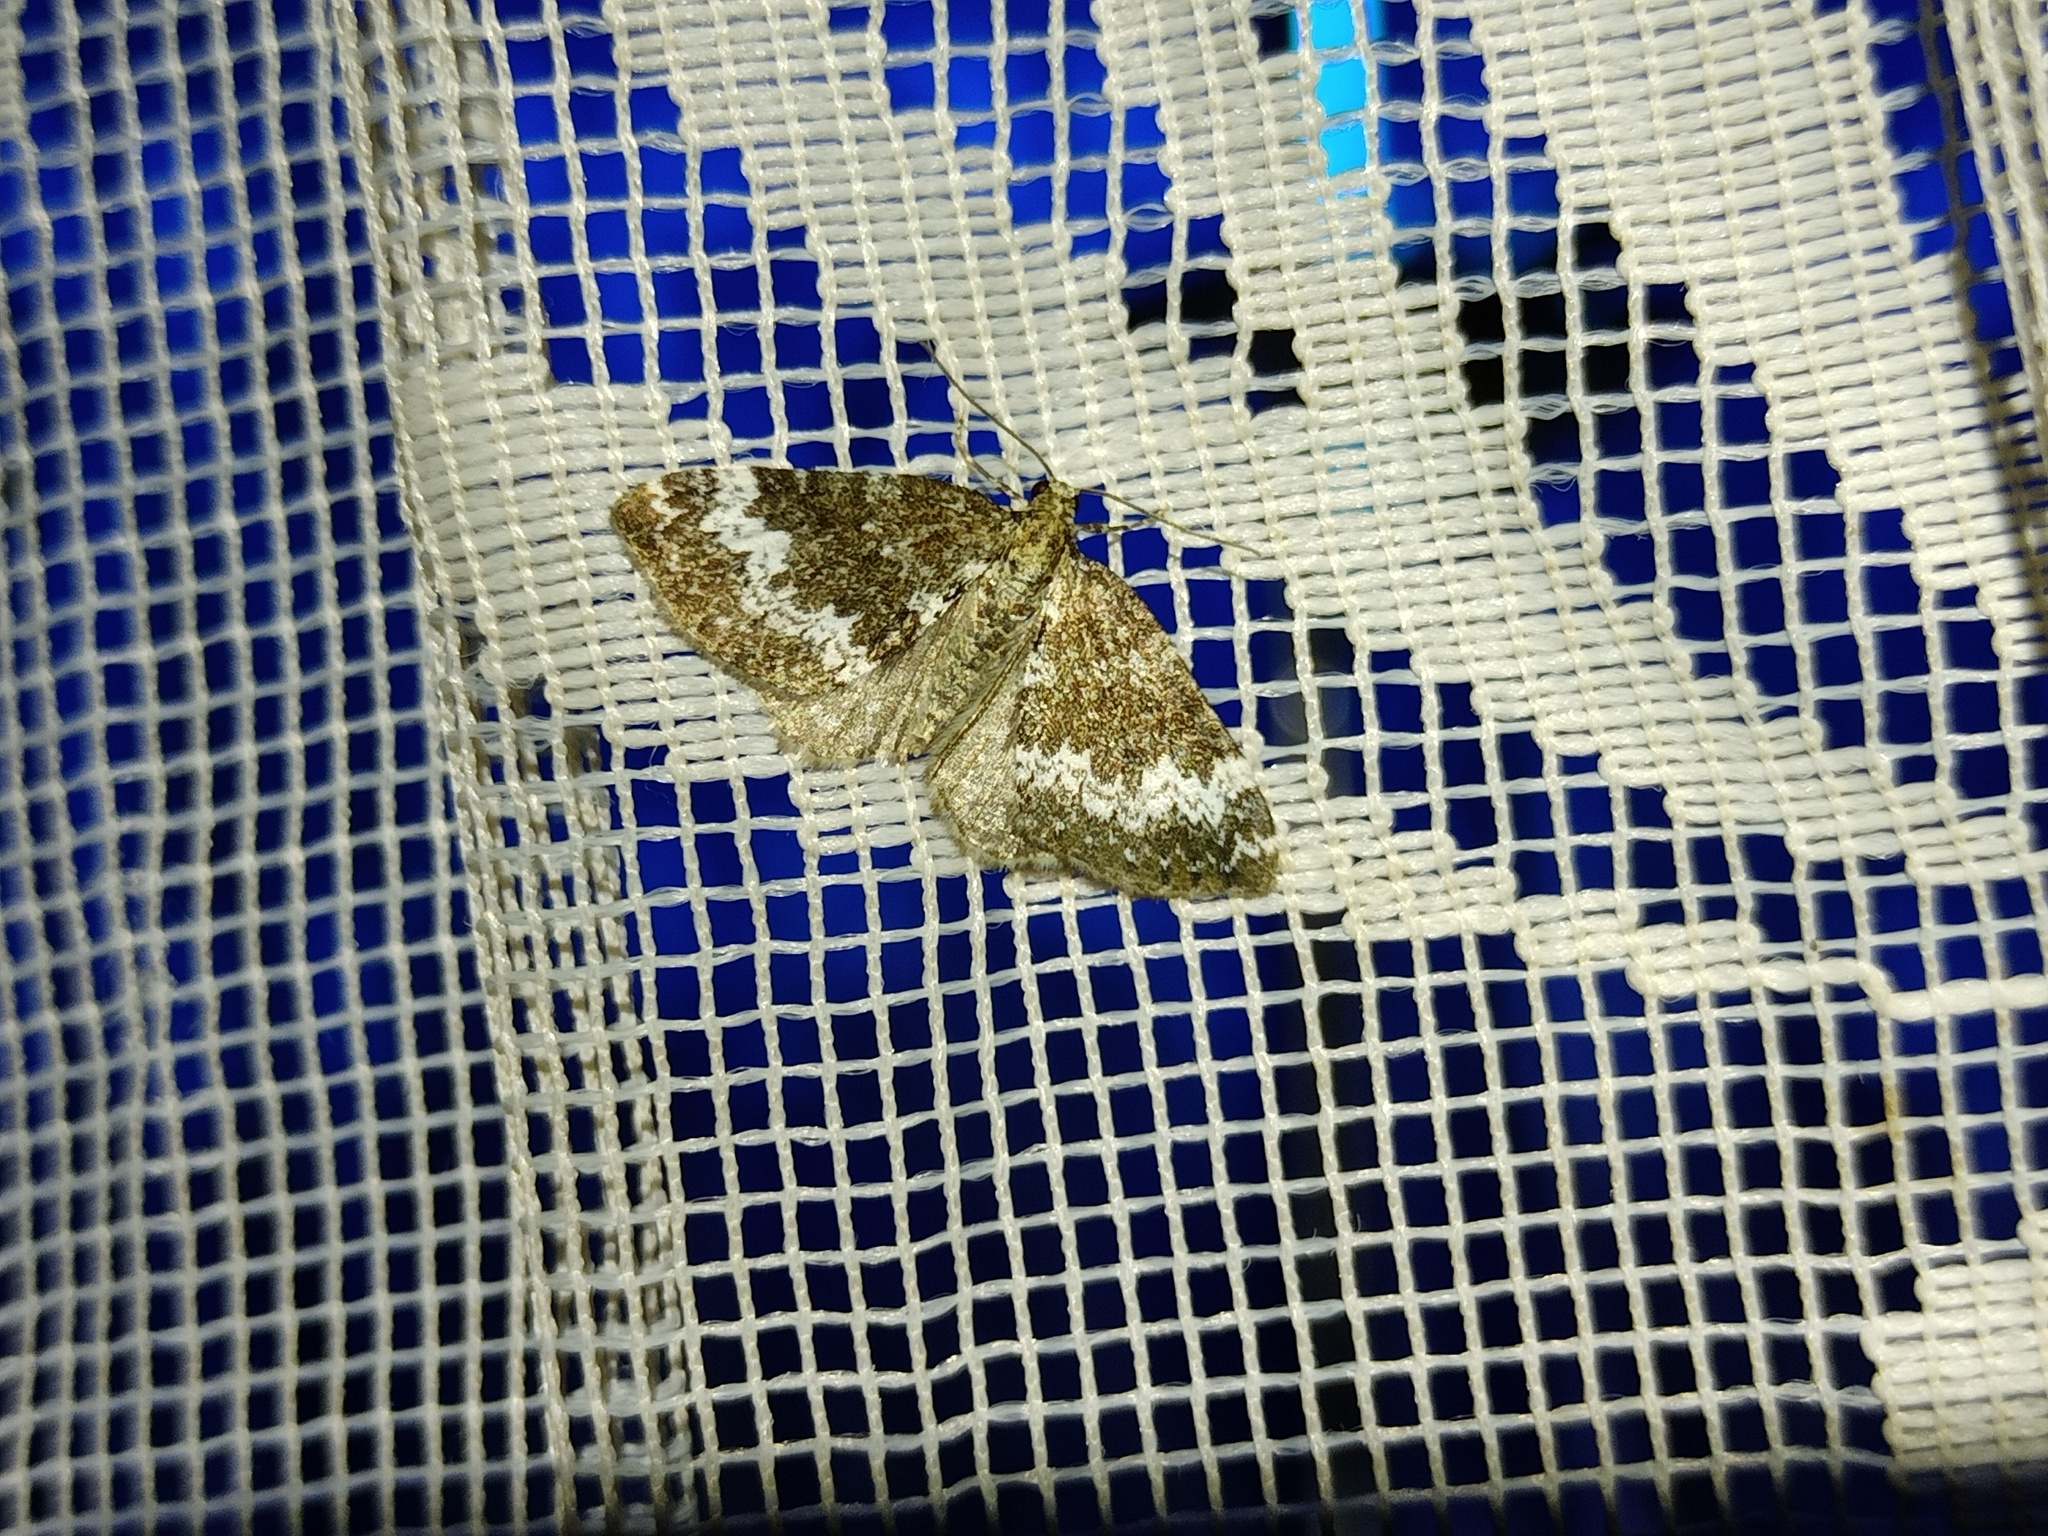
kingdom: Animalia
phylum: Arthropoda
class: Insecta
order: Lepidoptera
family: Geometridae
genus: Perizoma
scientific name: Perizoma alchemillata
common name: Small rivulet
